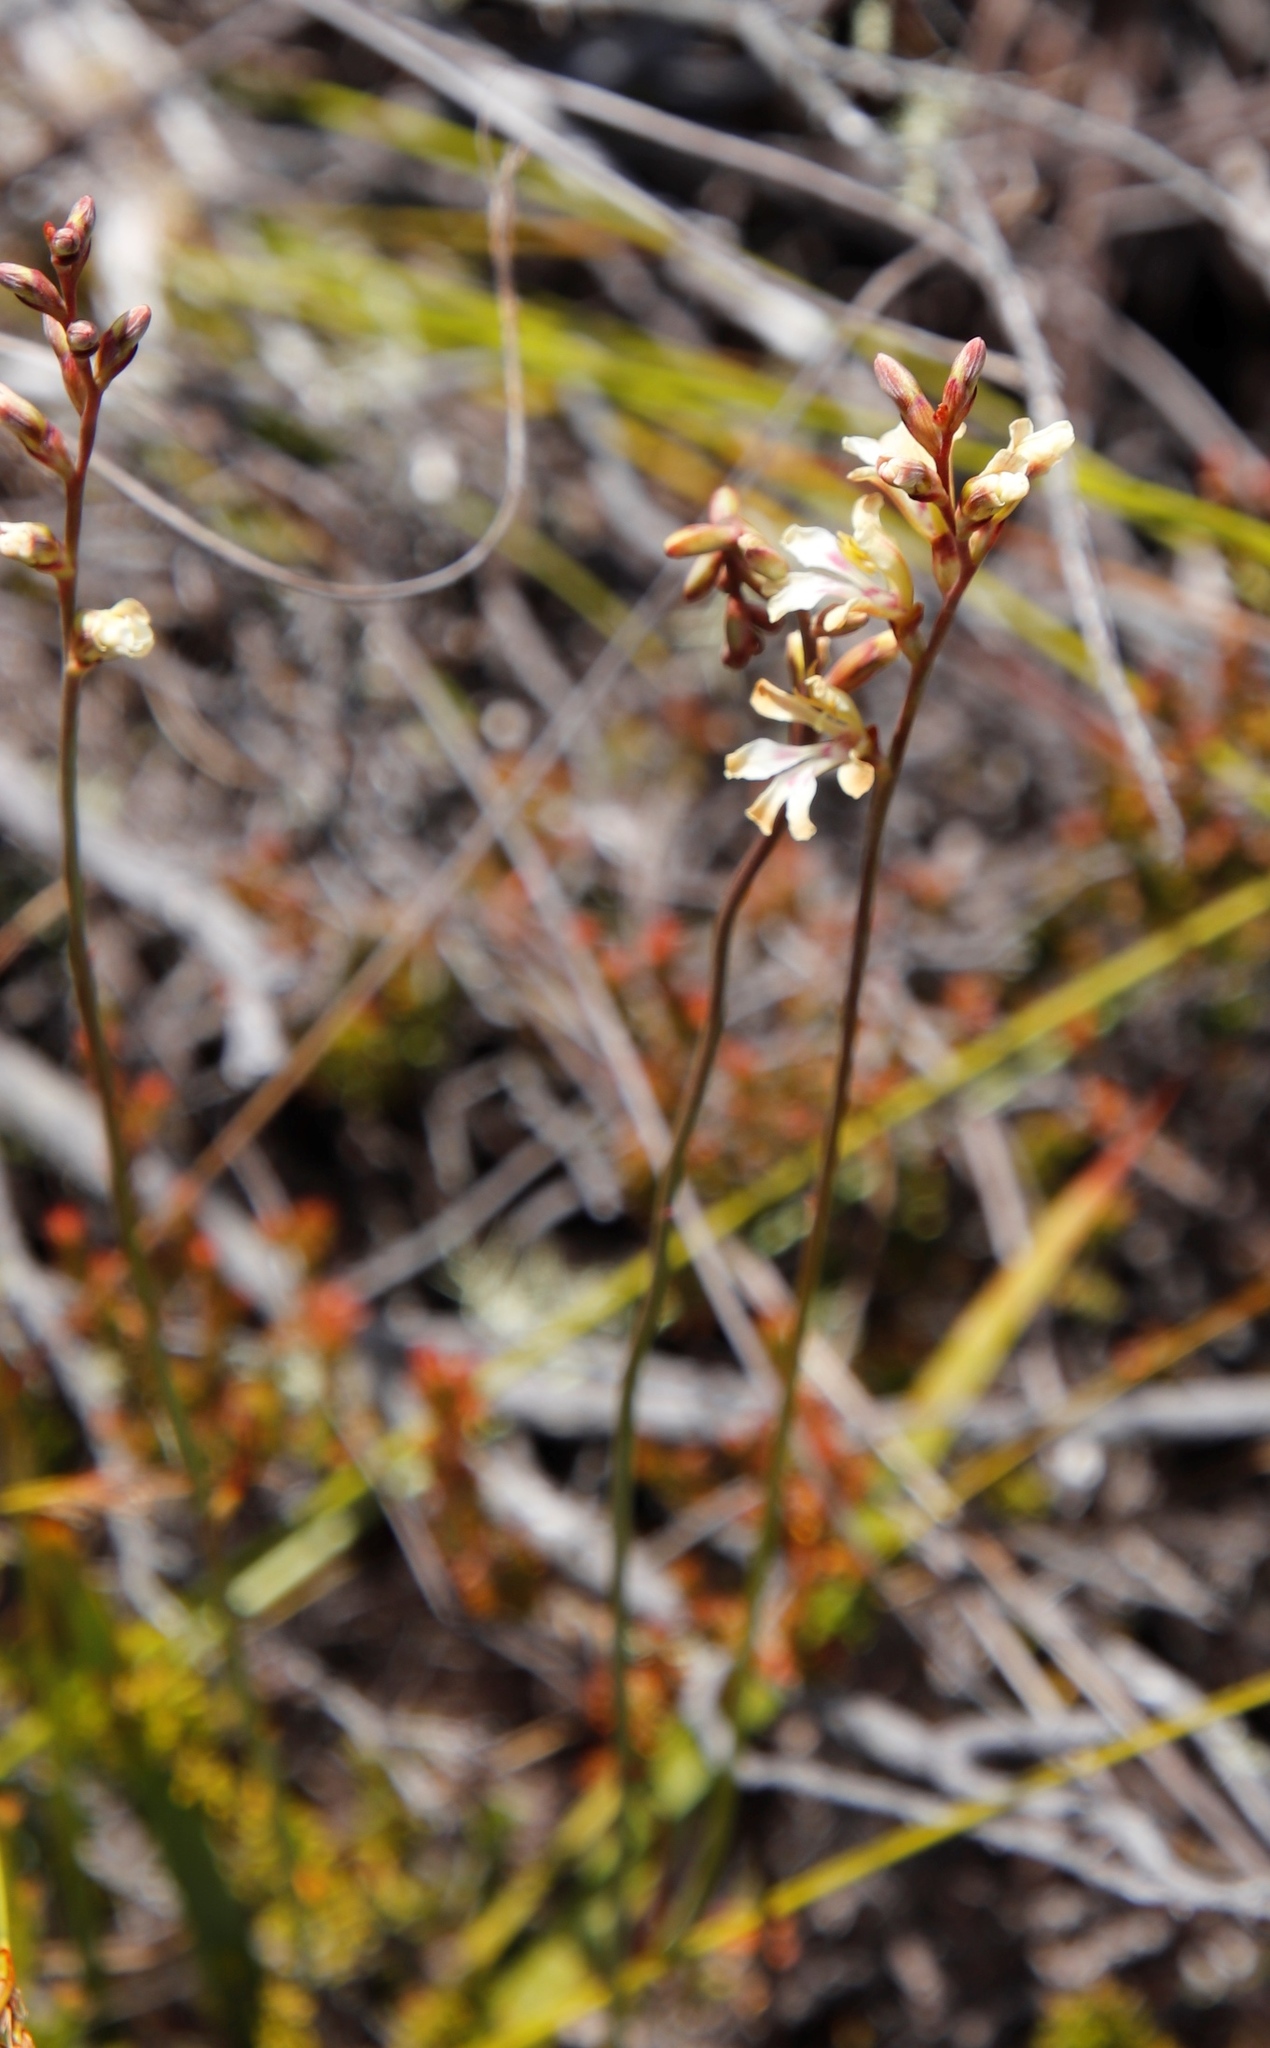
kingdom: Plantae
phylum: Tracheophyta
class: Liliopsida
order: Asparagales
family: Iridaceae
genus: Tritoniopsis
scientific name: Tritoniopsis unguicularis
